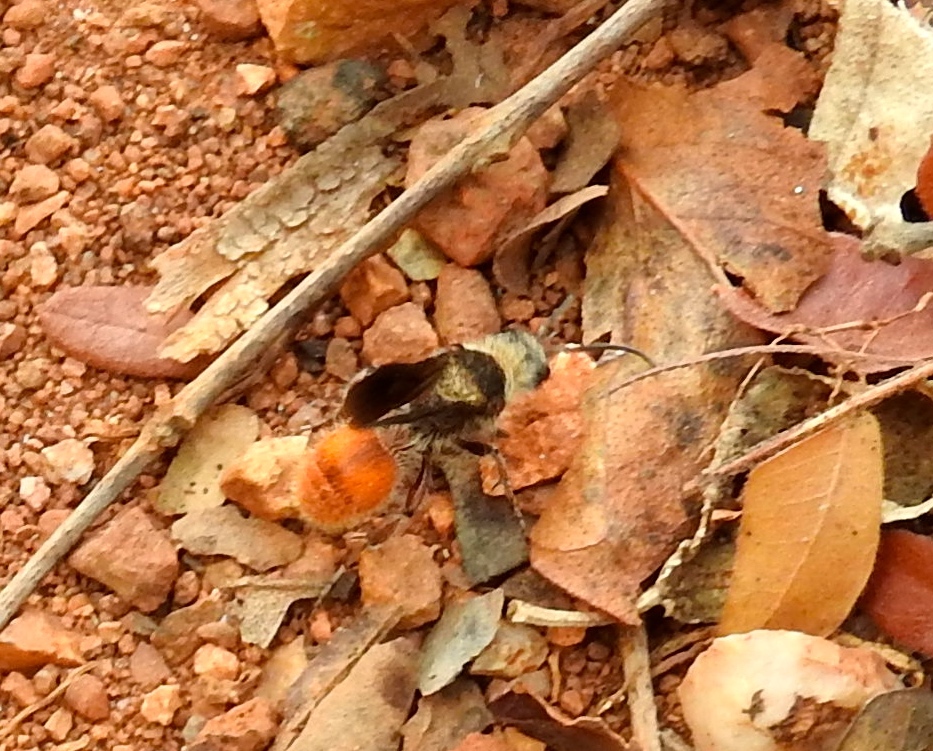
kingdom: Animalia
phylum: Arthropoda
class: Insecta
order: Hymenoptera
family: Mutillidae
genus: Dasymutilla
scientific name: Dasymutilla foxi
